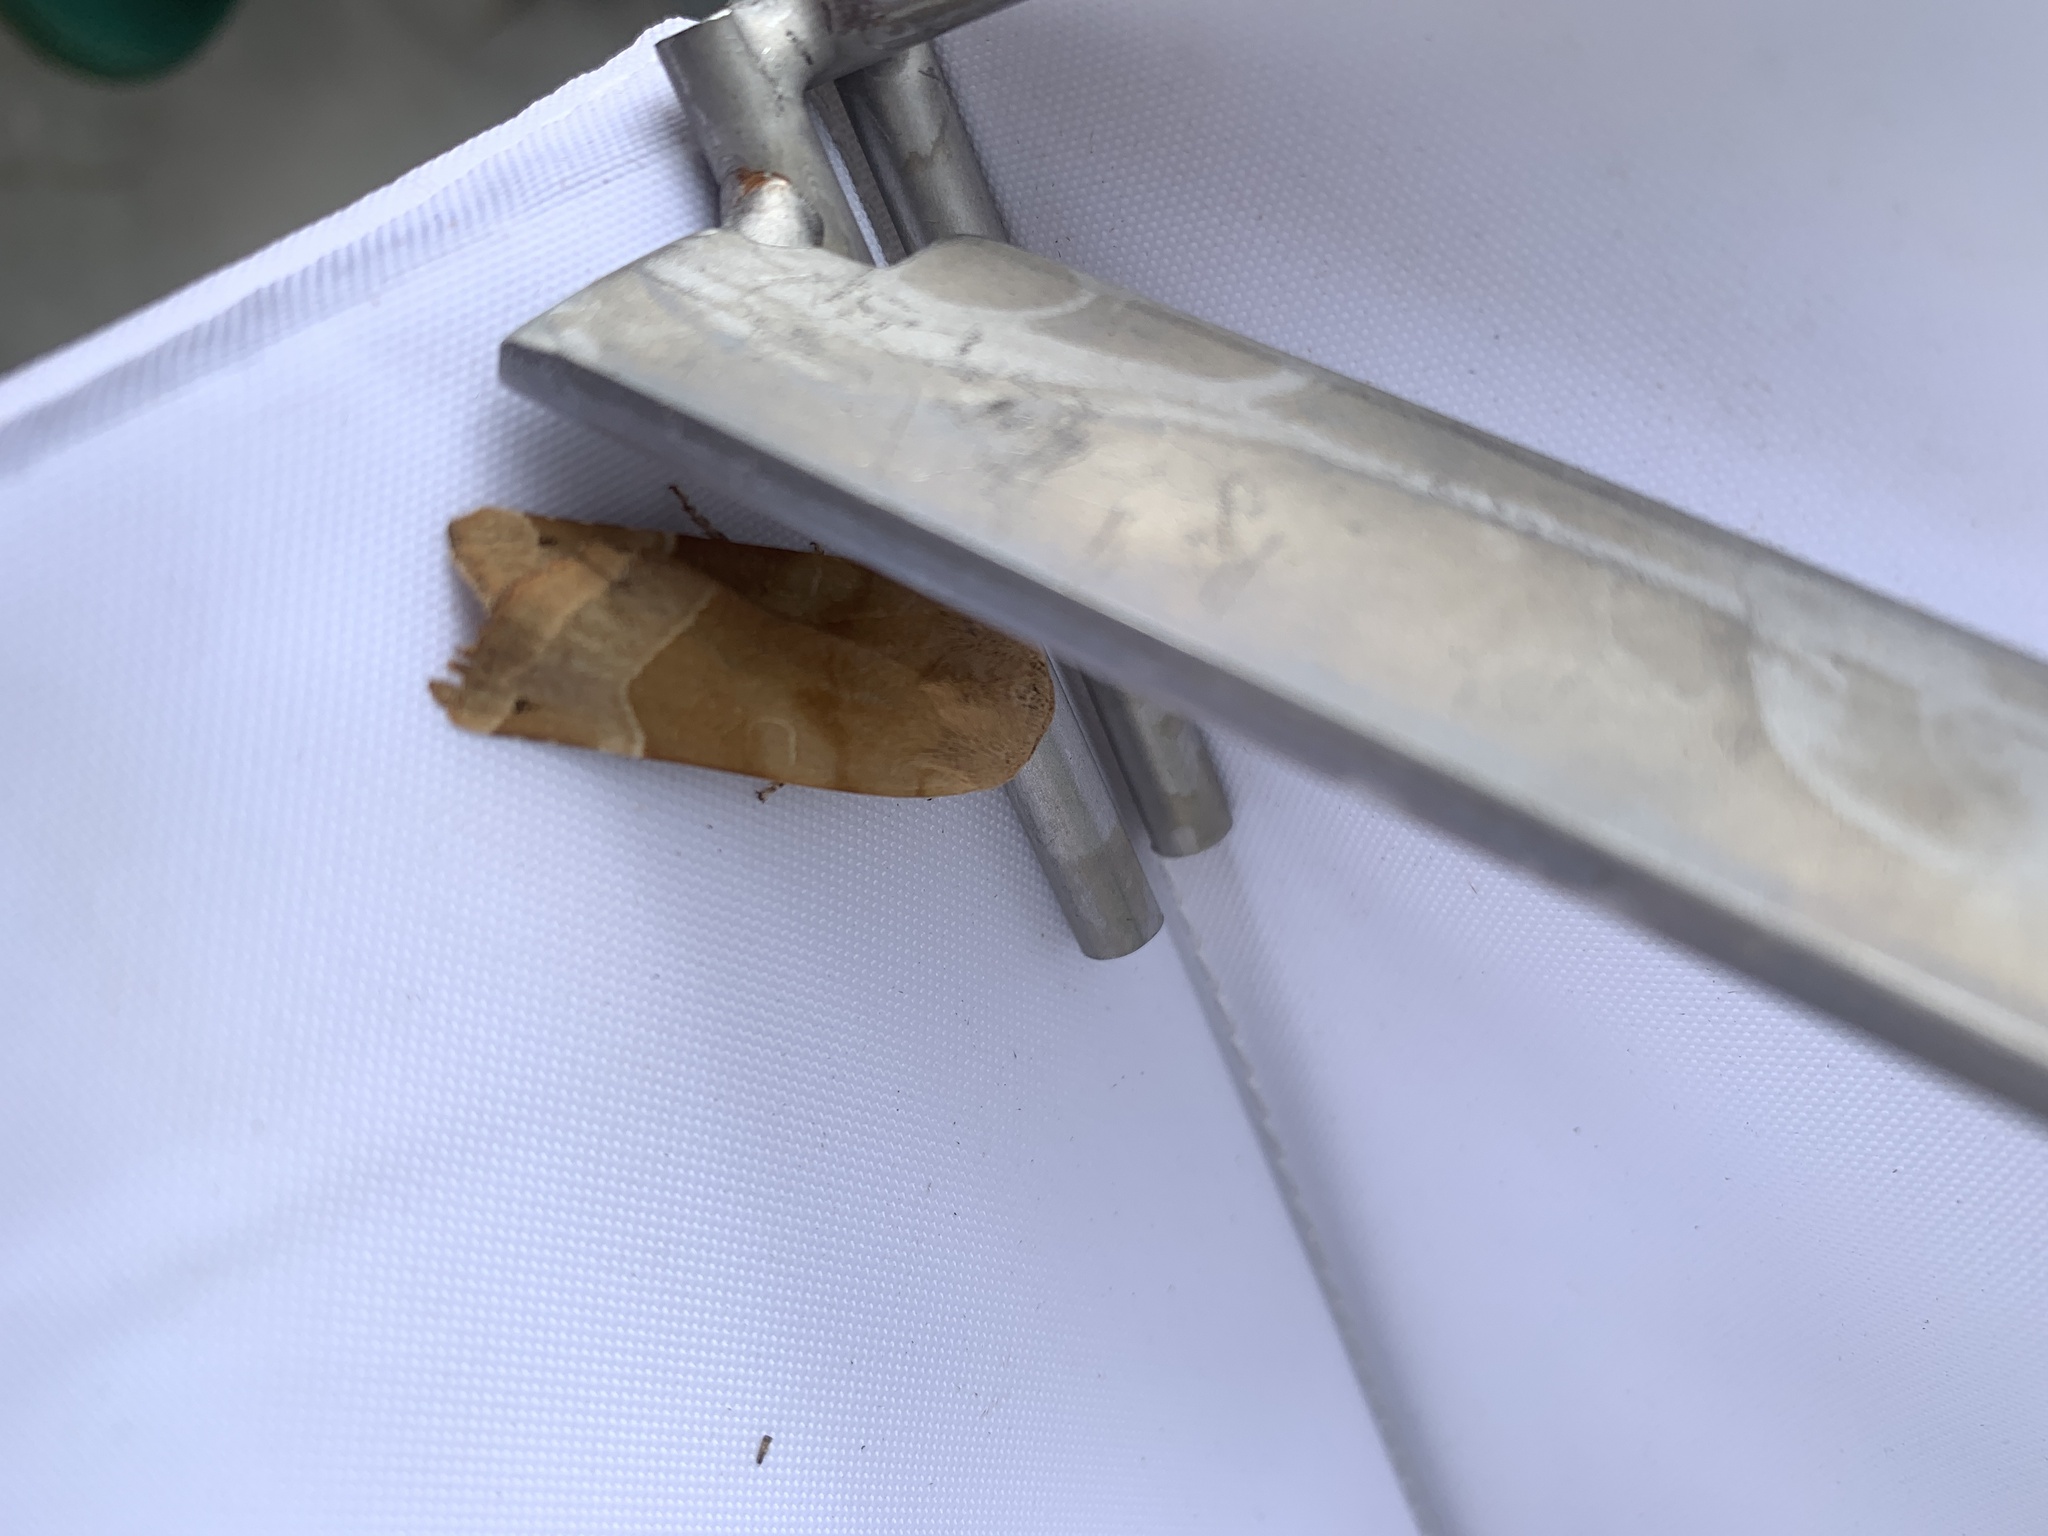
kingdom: Animalia
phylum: Arthropoda
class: Insecta
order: Lepidoptera
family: Noctuidae
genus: Noctua
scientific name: Noctua fimbriata
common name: Broad-bordered yellow underwing
